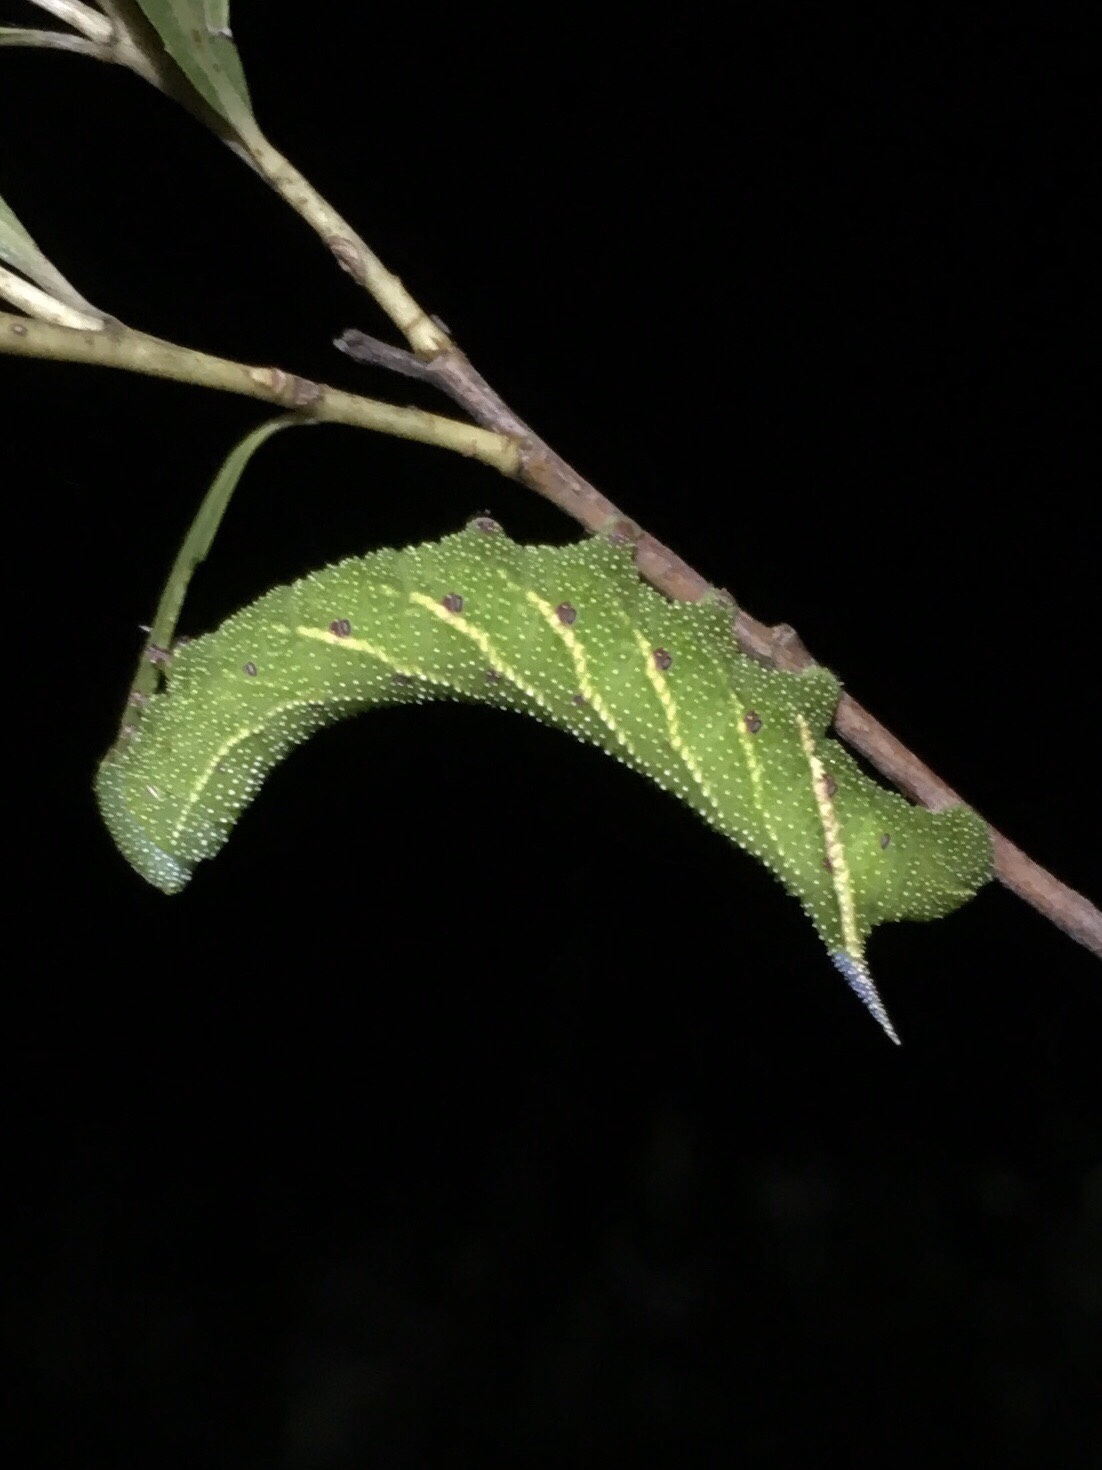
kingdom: Animalia
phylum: Arthropoda
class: Insecta
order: Lepidoptera
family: Sphingidae
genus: Smerinthus
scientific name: Smerinthus jamaicensis
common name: Twin spotted sphinx
